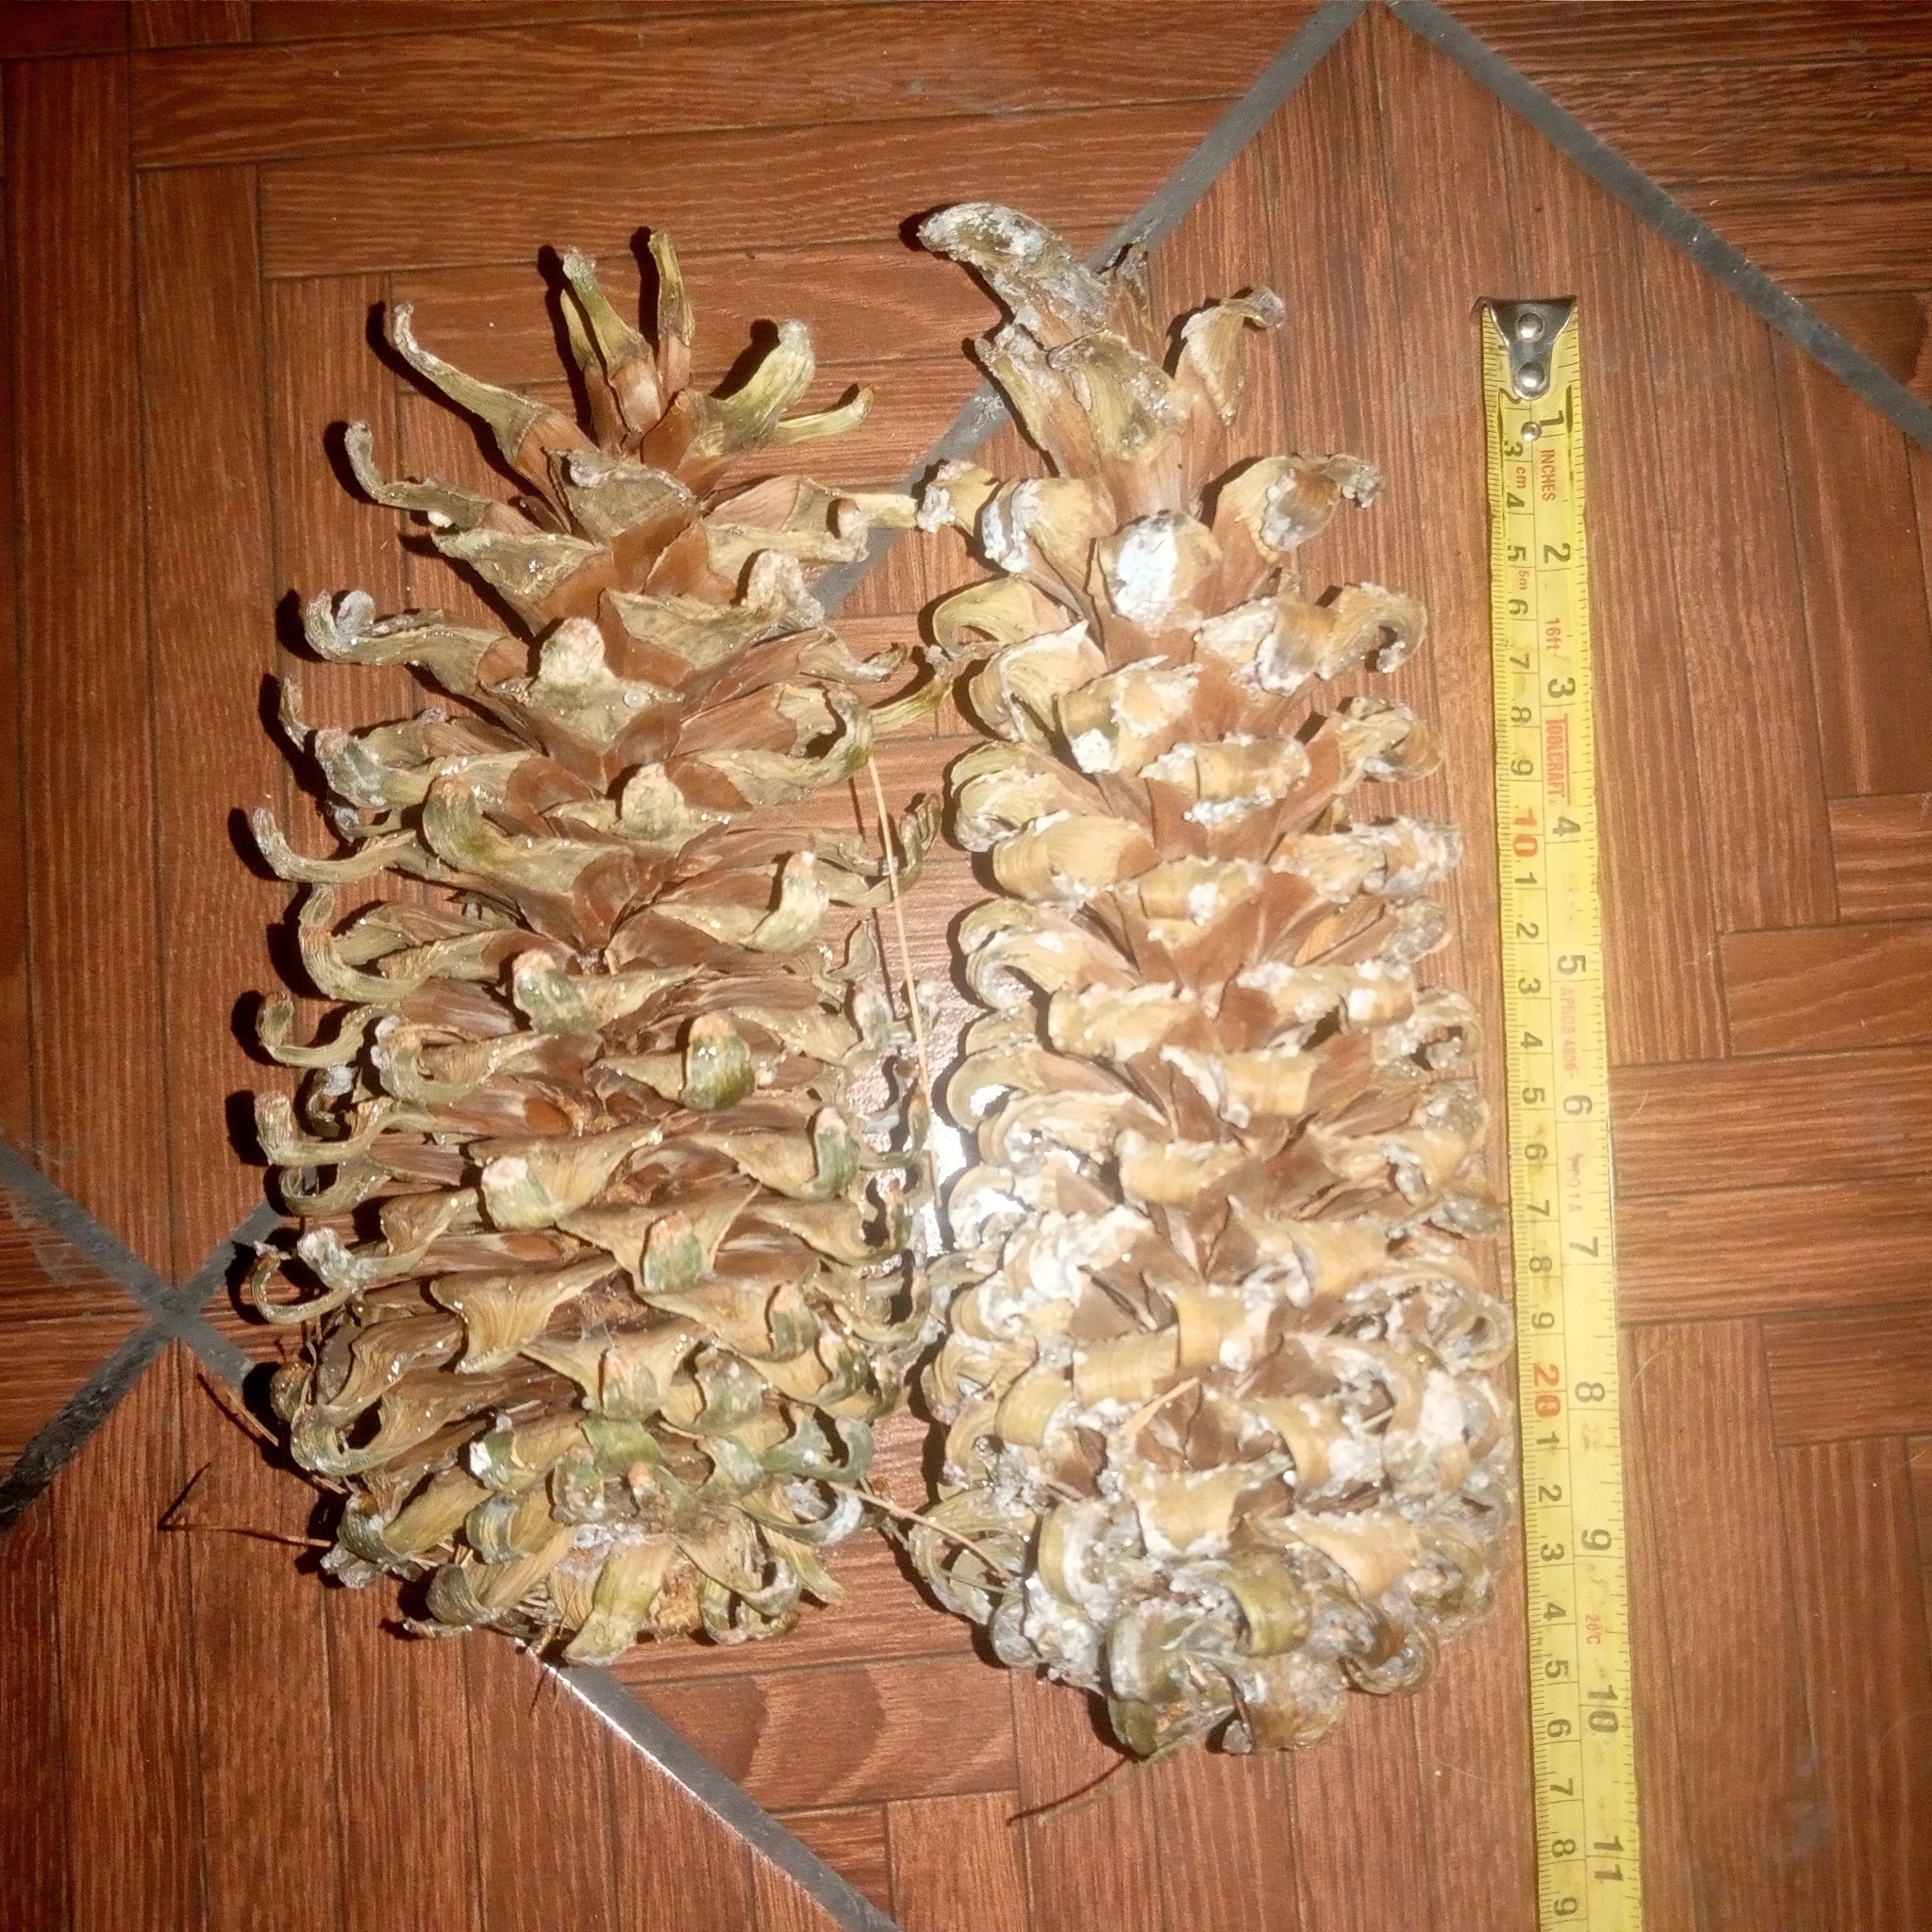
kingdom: Plantae
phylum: Tracheophyta
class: Pinopsida
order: Pinales
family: Pinaceae
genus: Pinus
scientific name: Pinus ayacahuite
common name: Mexican white pine
